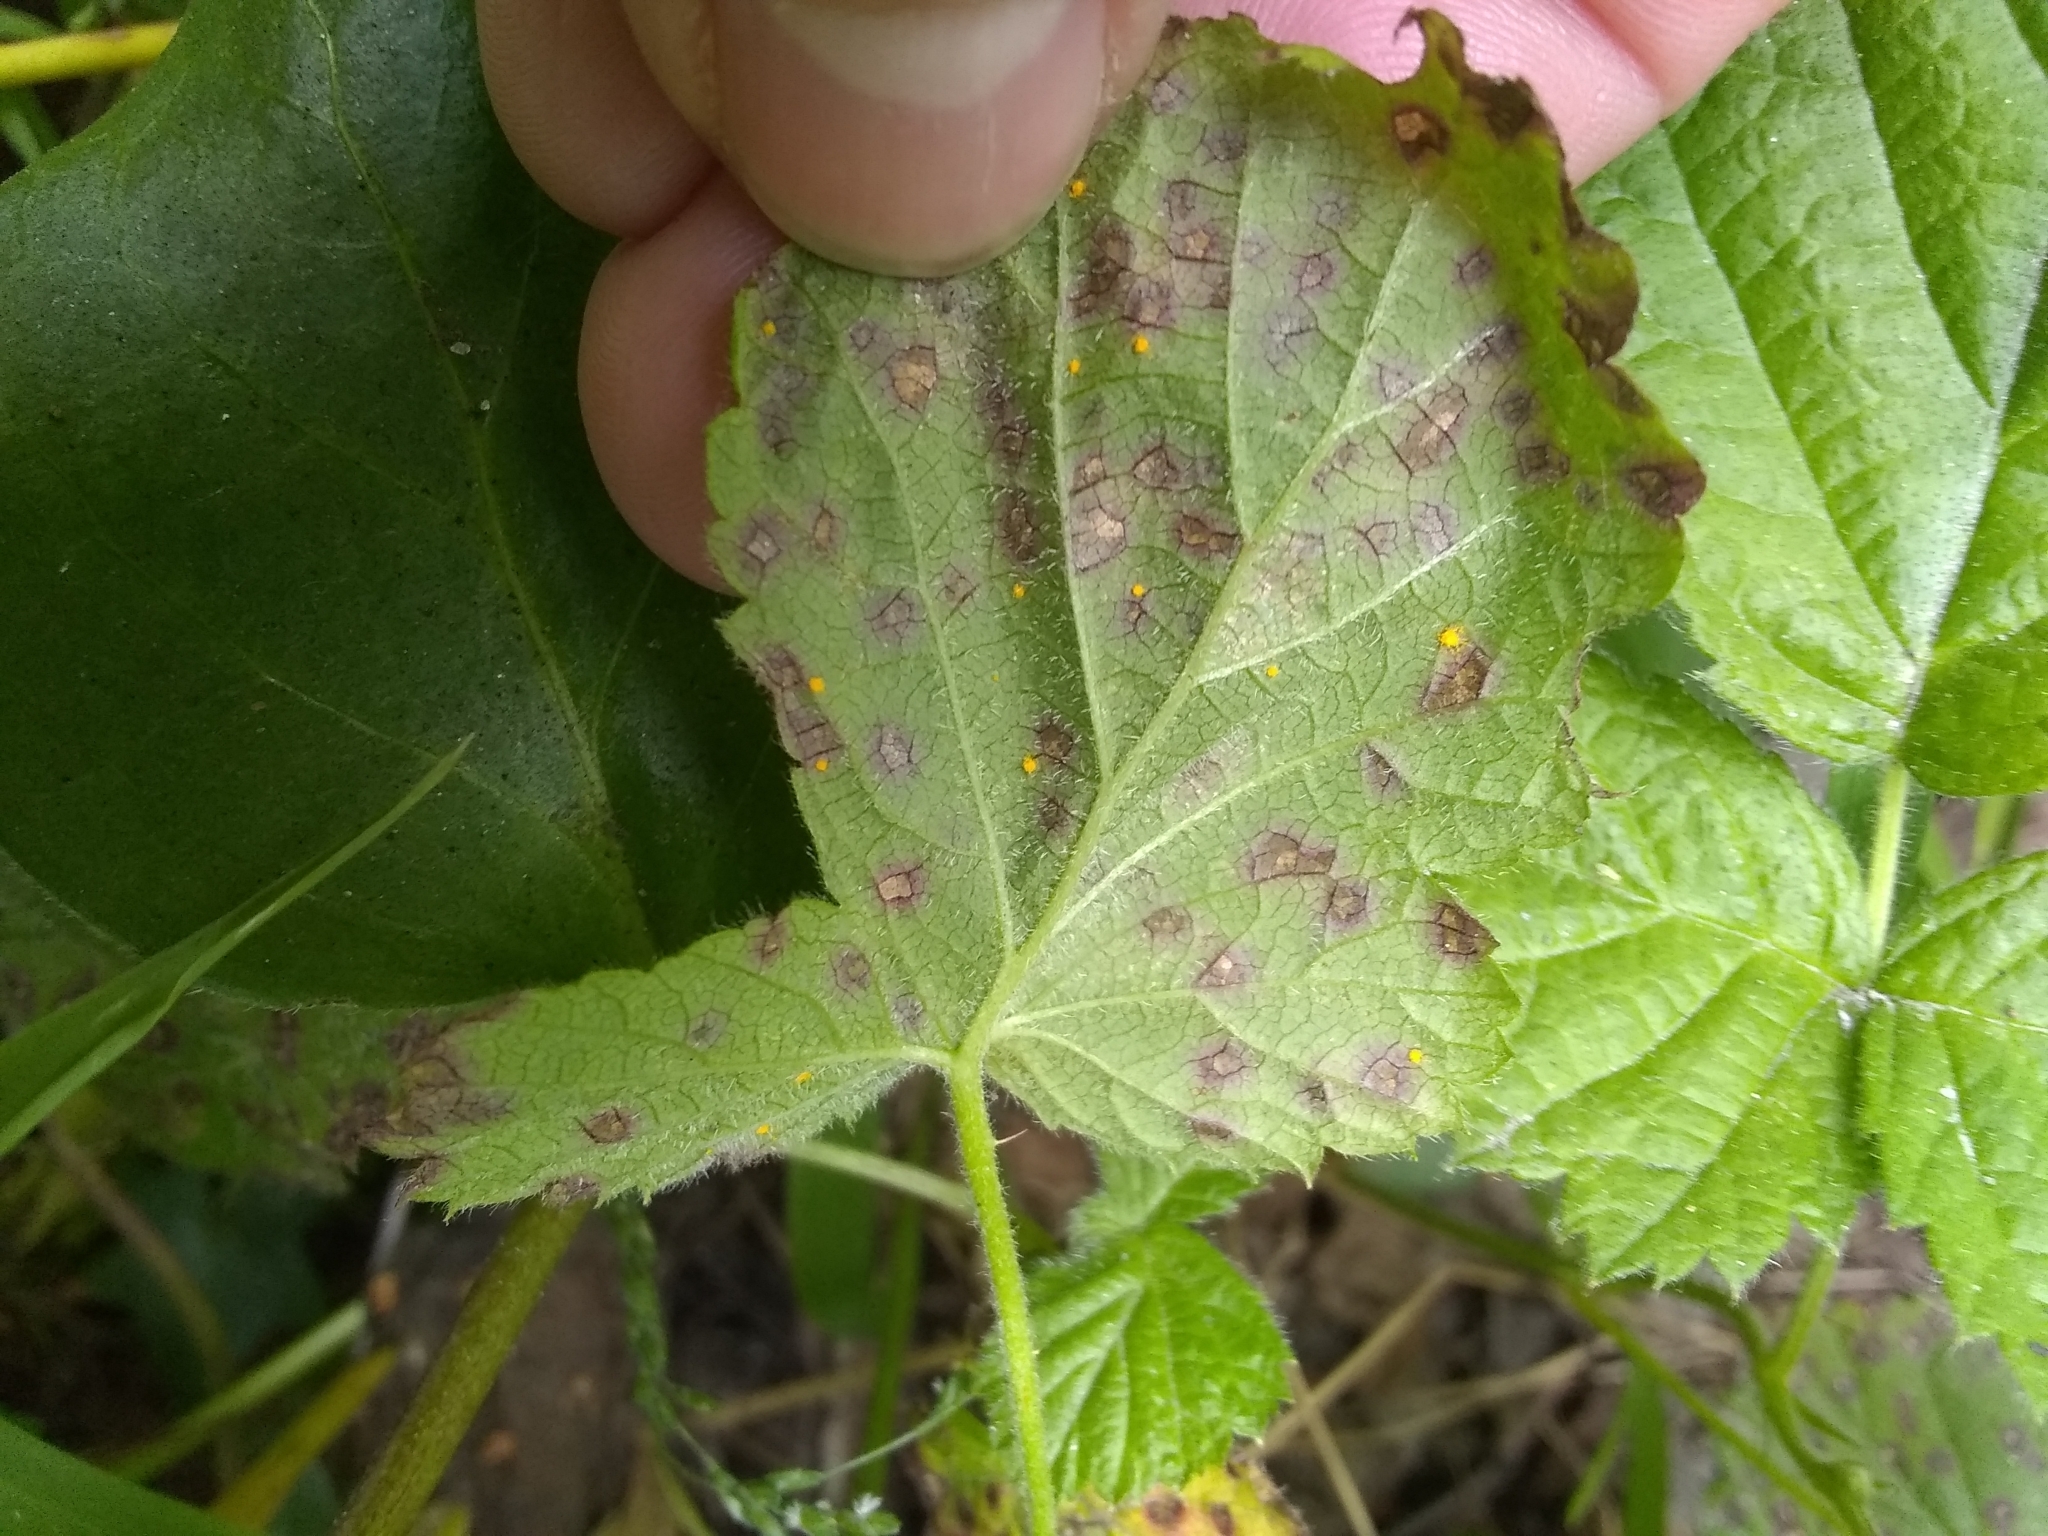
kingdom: Fungi
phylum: Basidiomycota
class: Pucciniomycetes
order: Pucciniales
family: Phragmidiaceae
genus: Phragmidium
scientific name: Phragmidium violaceum
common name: Violet bramble rust
